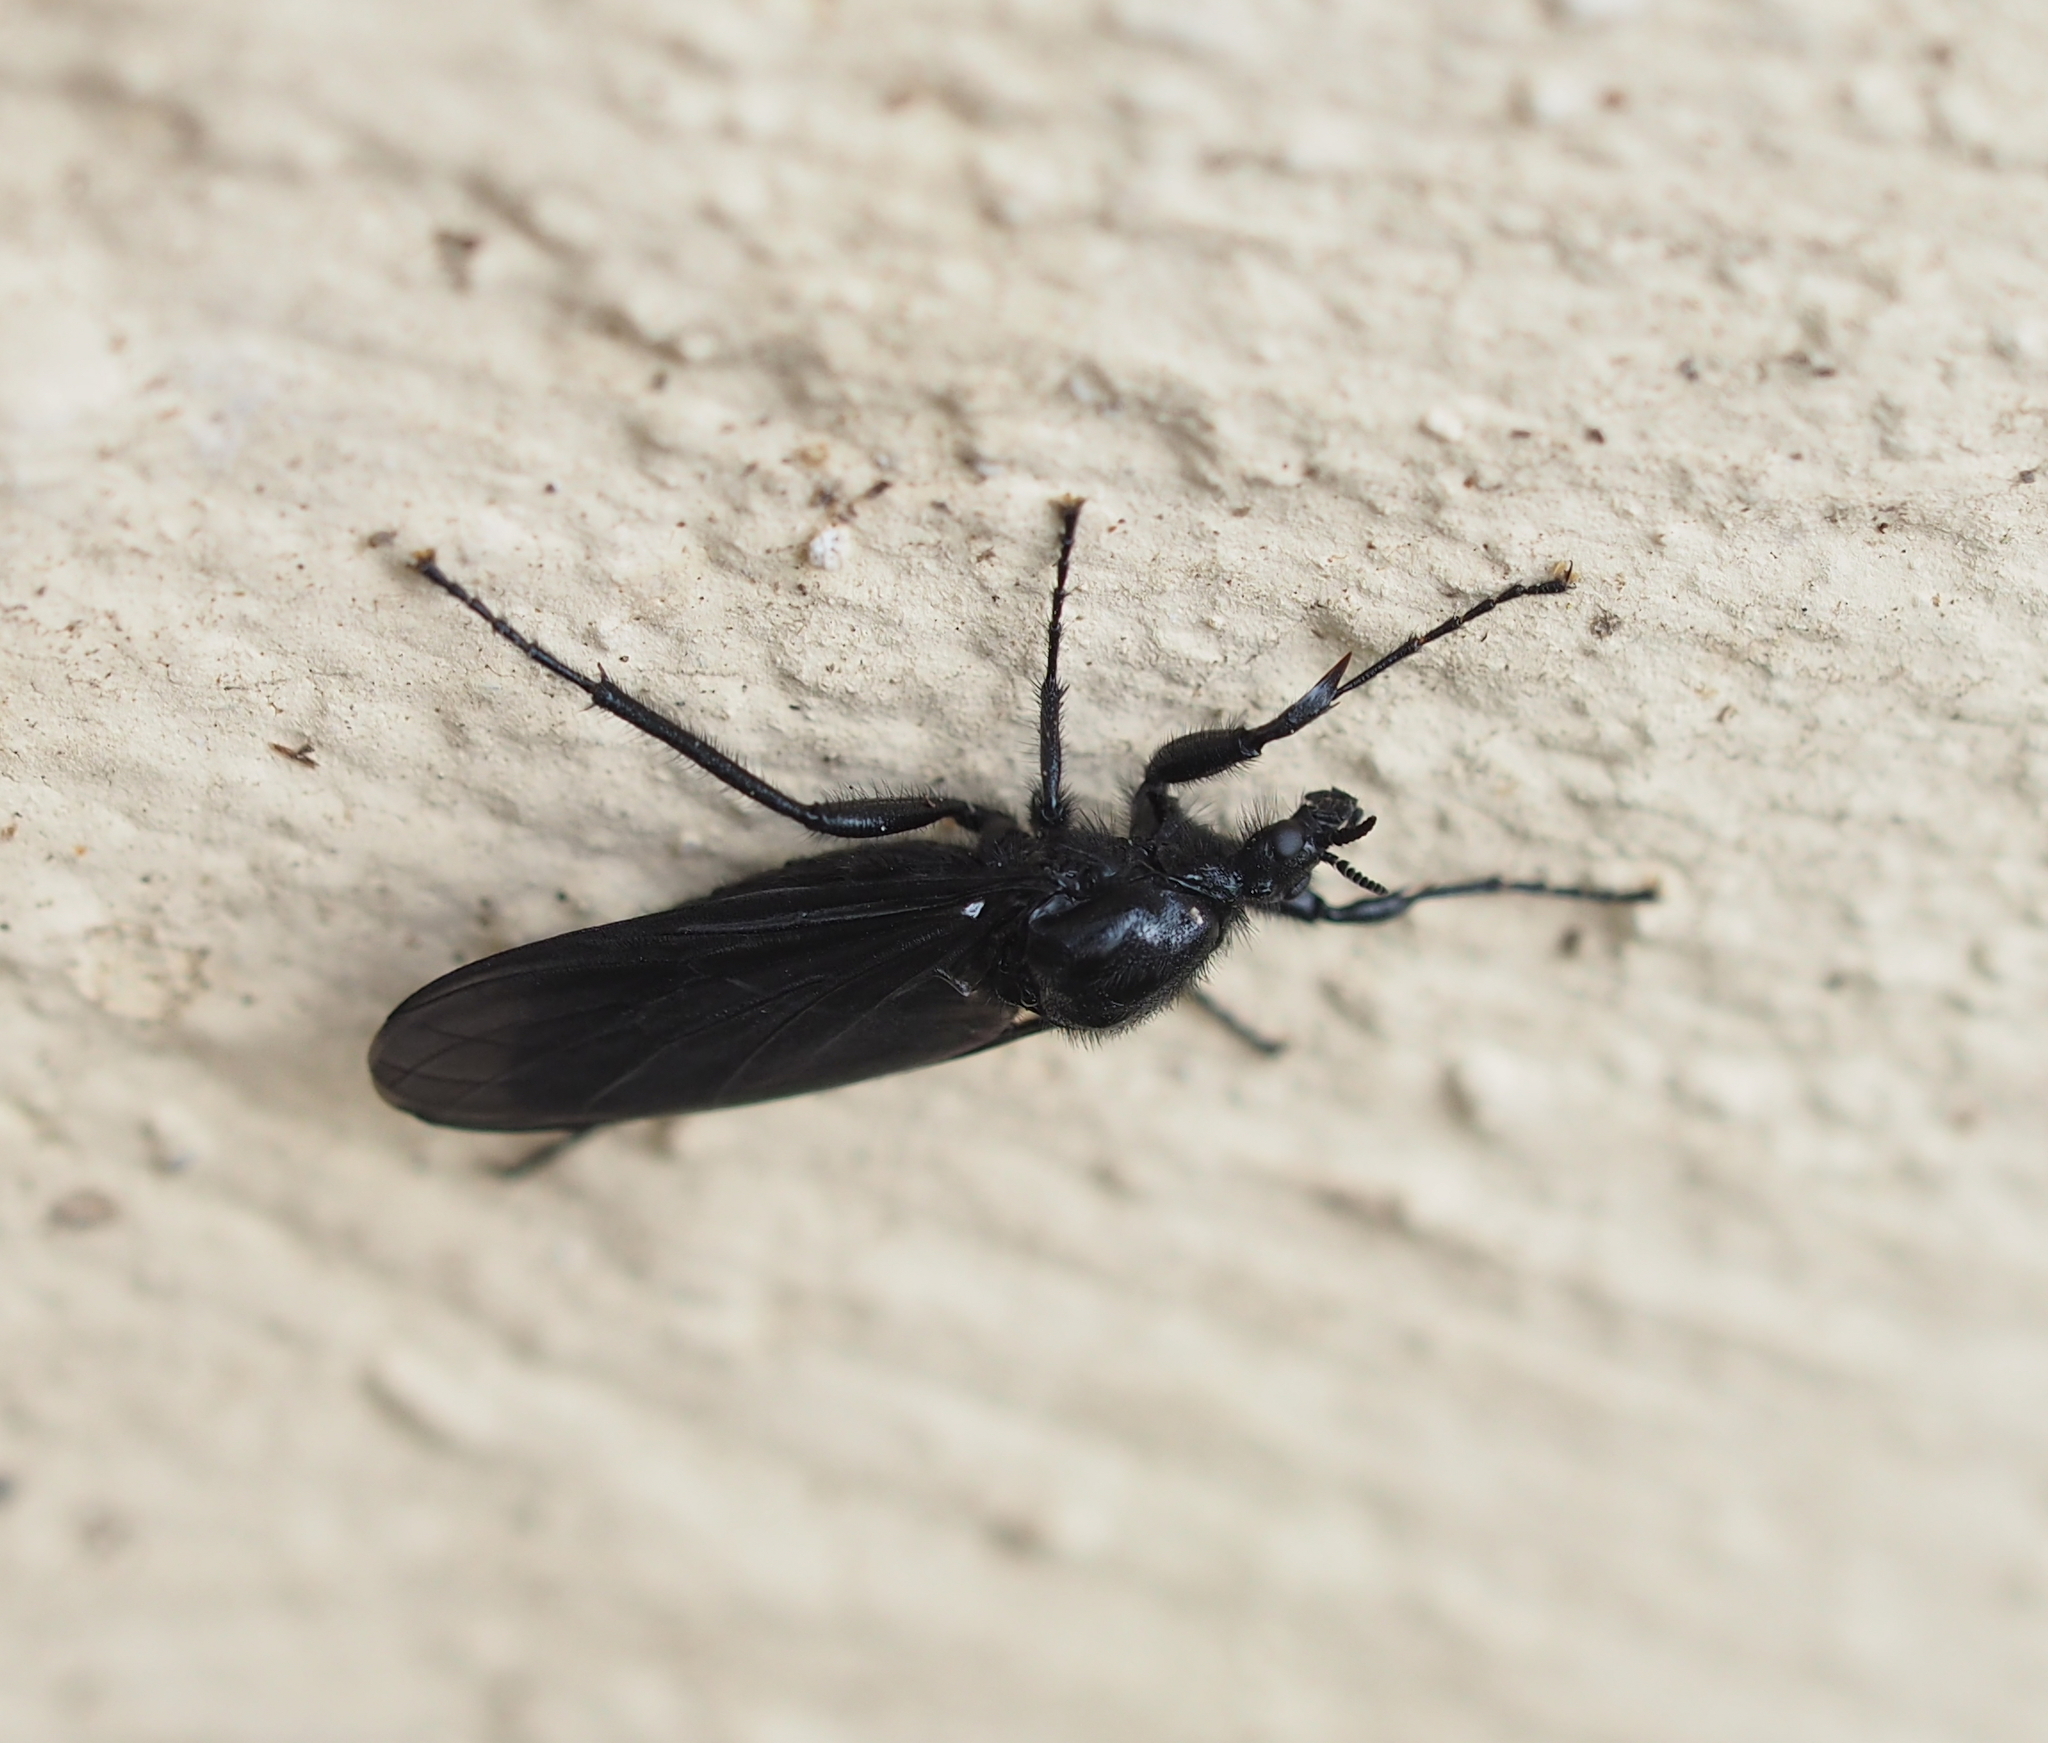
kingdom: Animalia
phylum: Arthropoda
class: Insecta
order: Diptera
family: Bibionidae
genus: Bibio
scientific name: Bibio marci
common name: St marks fly
